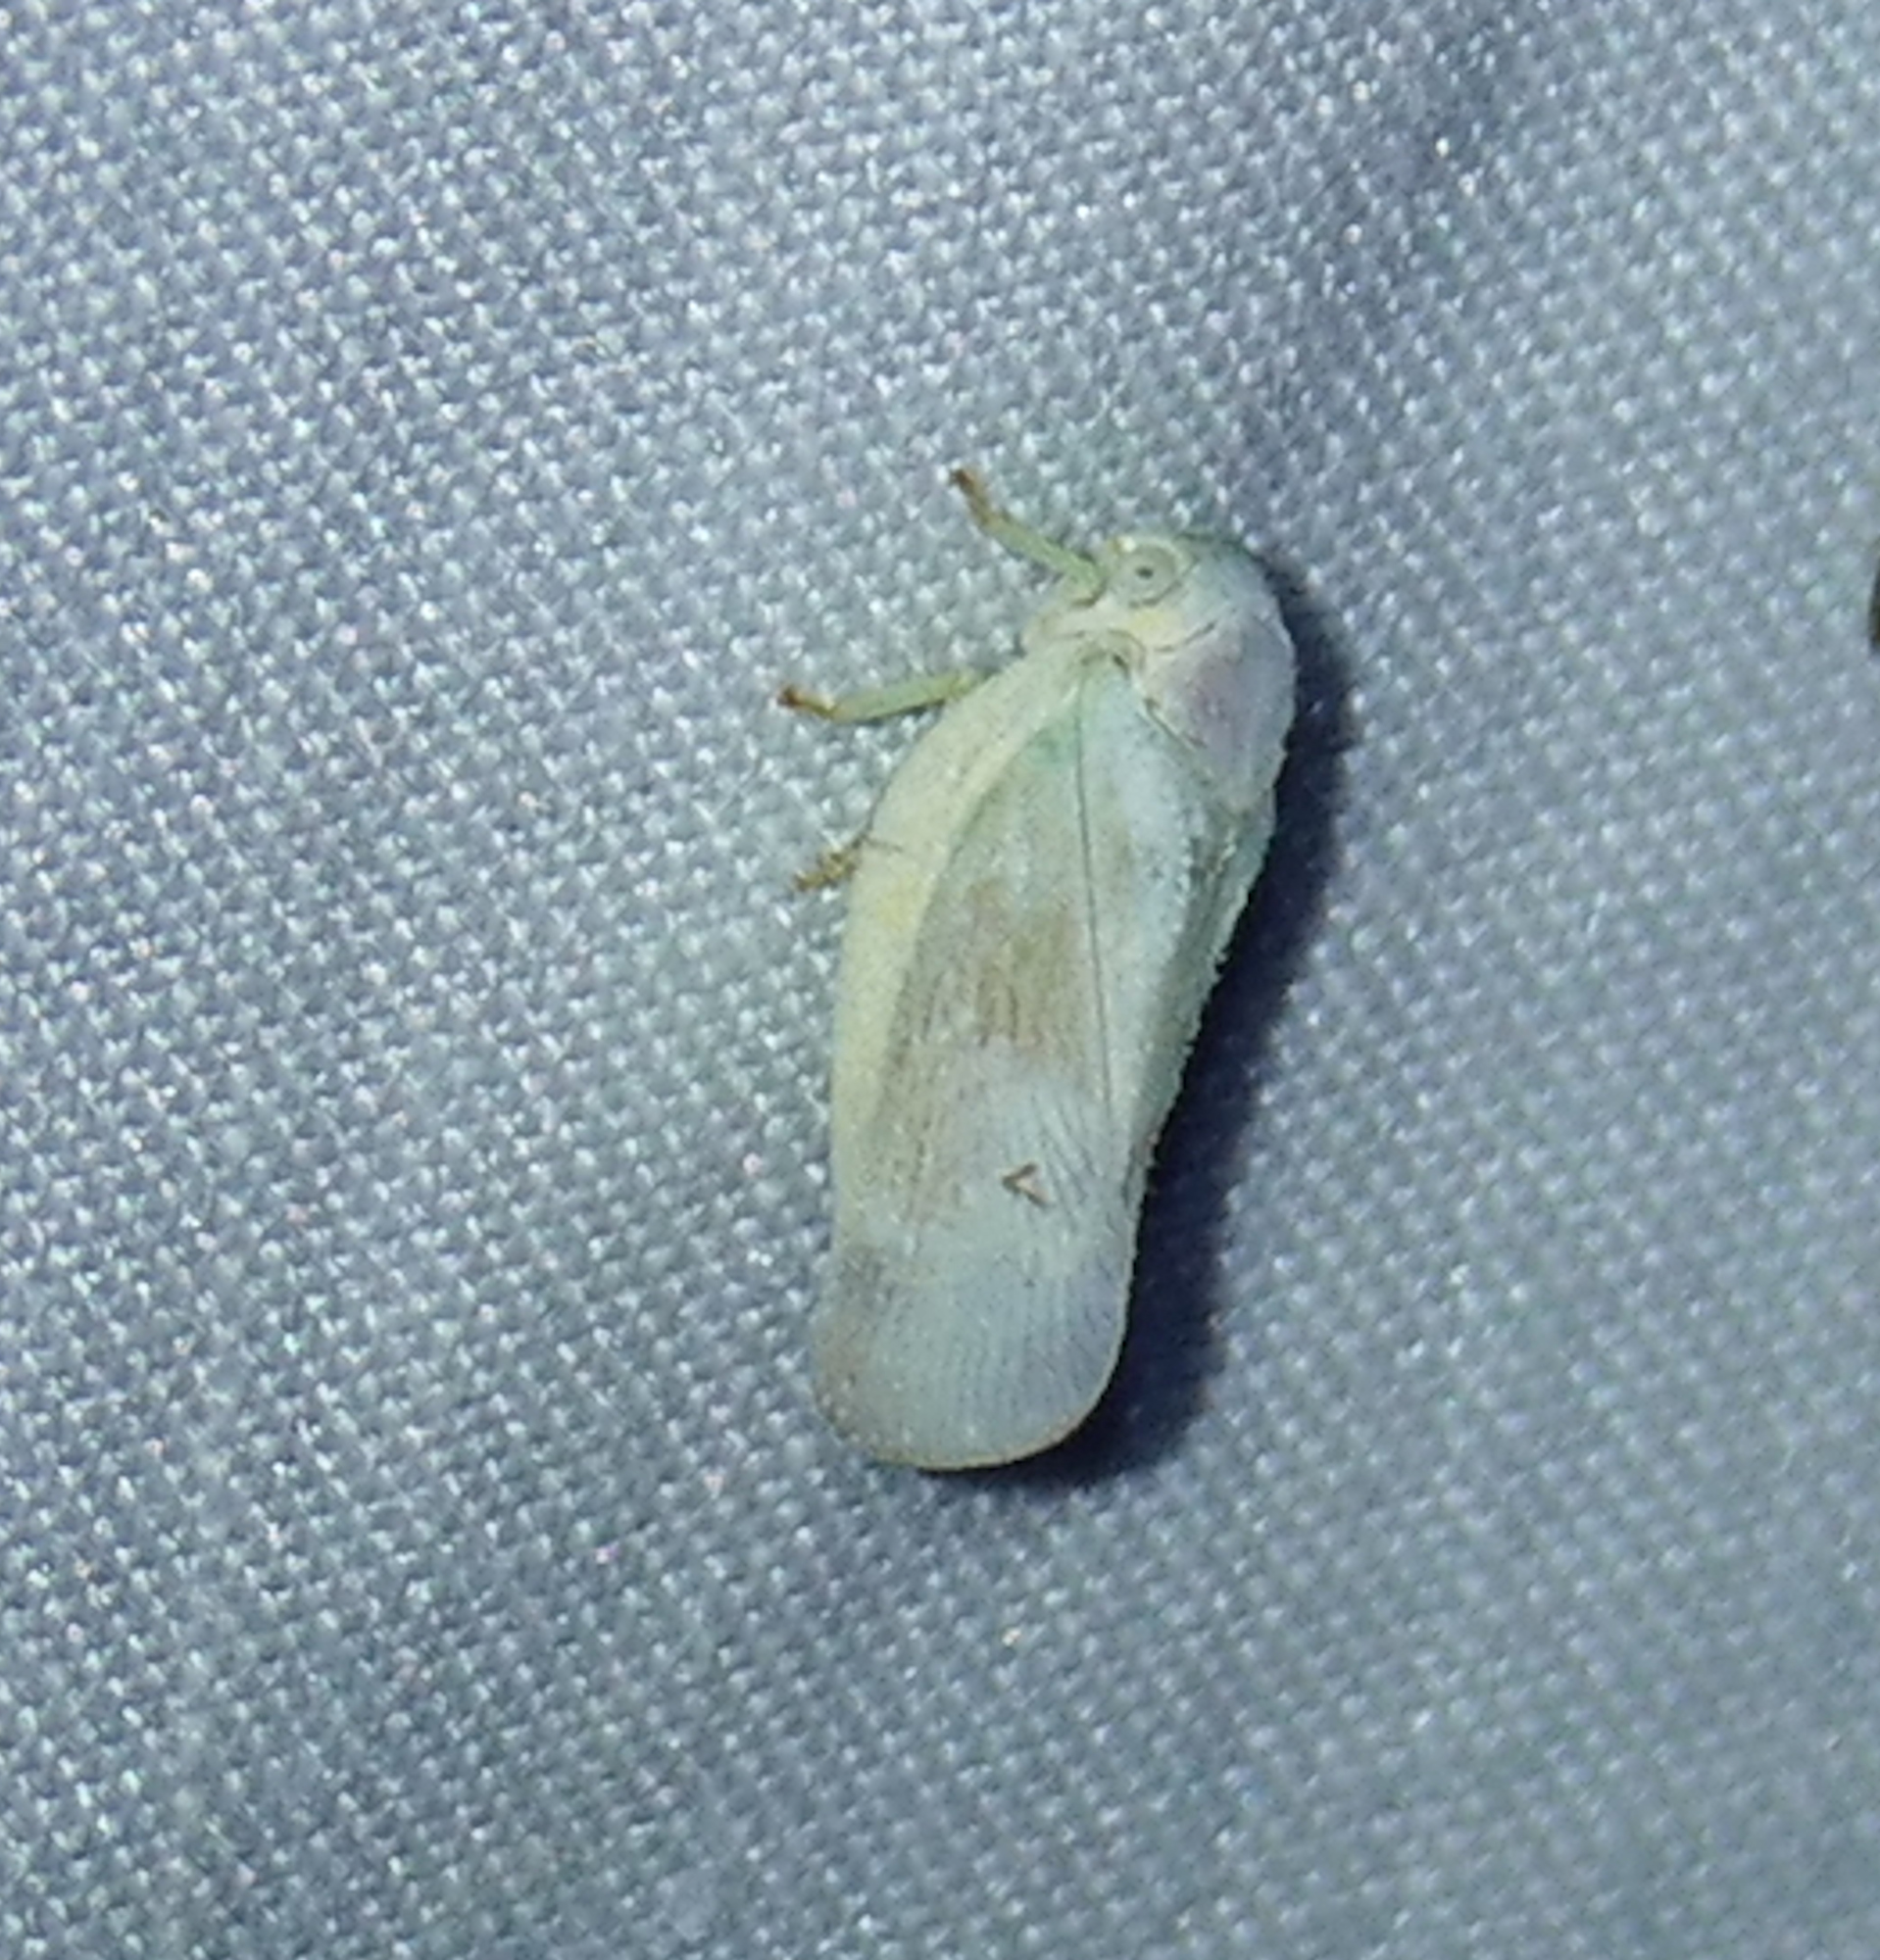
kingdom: Animalia
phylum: Arthropoda
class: Insecta
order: Hemiptera
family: Flatidae
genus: Flatormenis
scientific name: Flatormenis saucia
